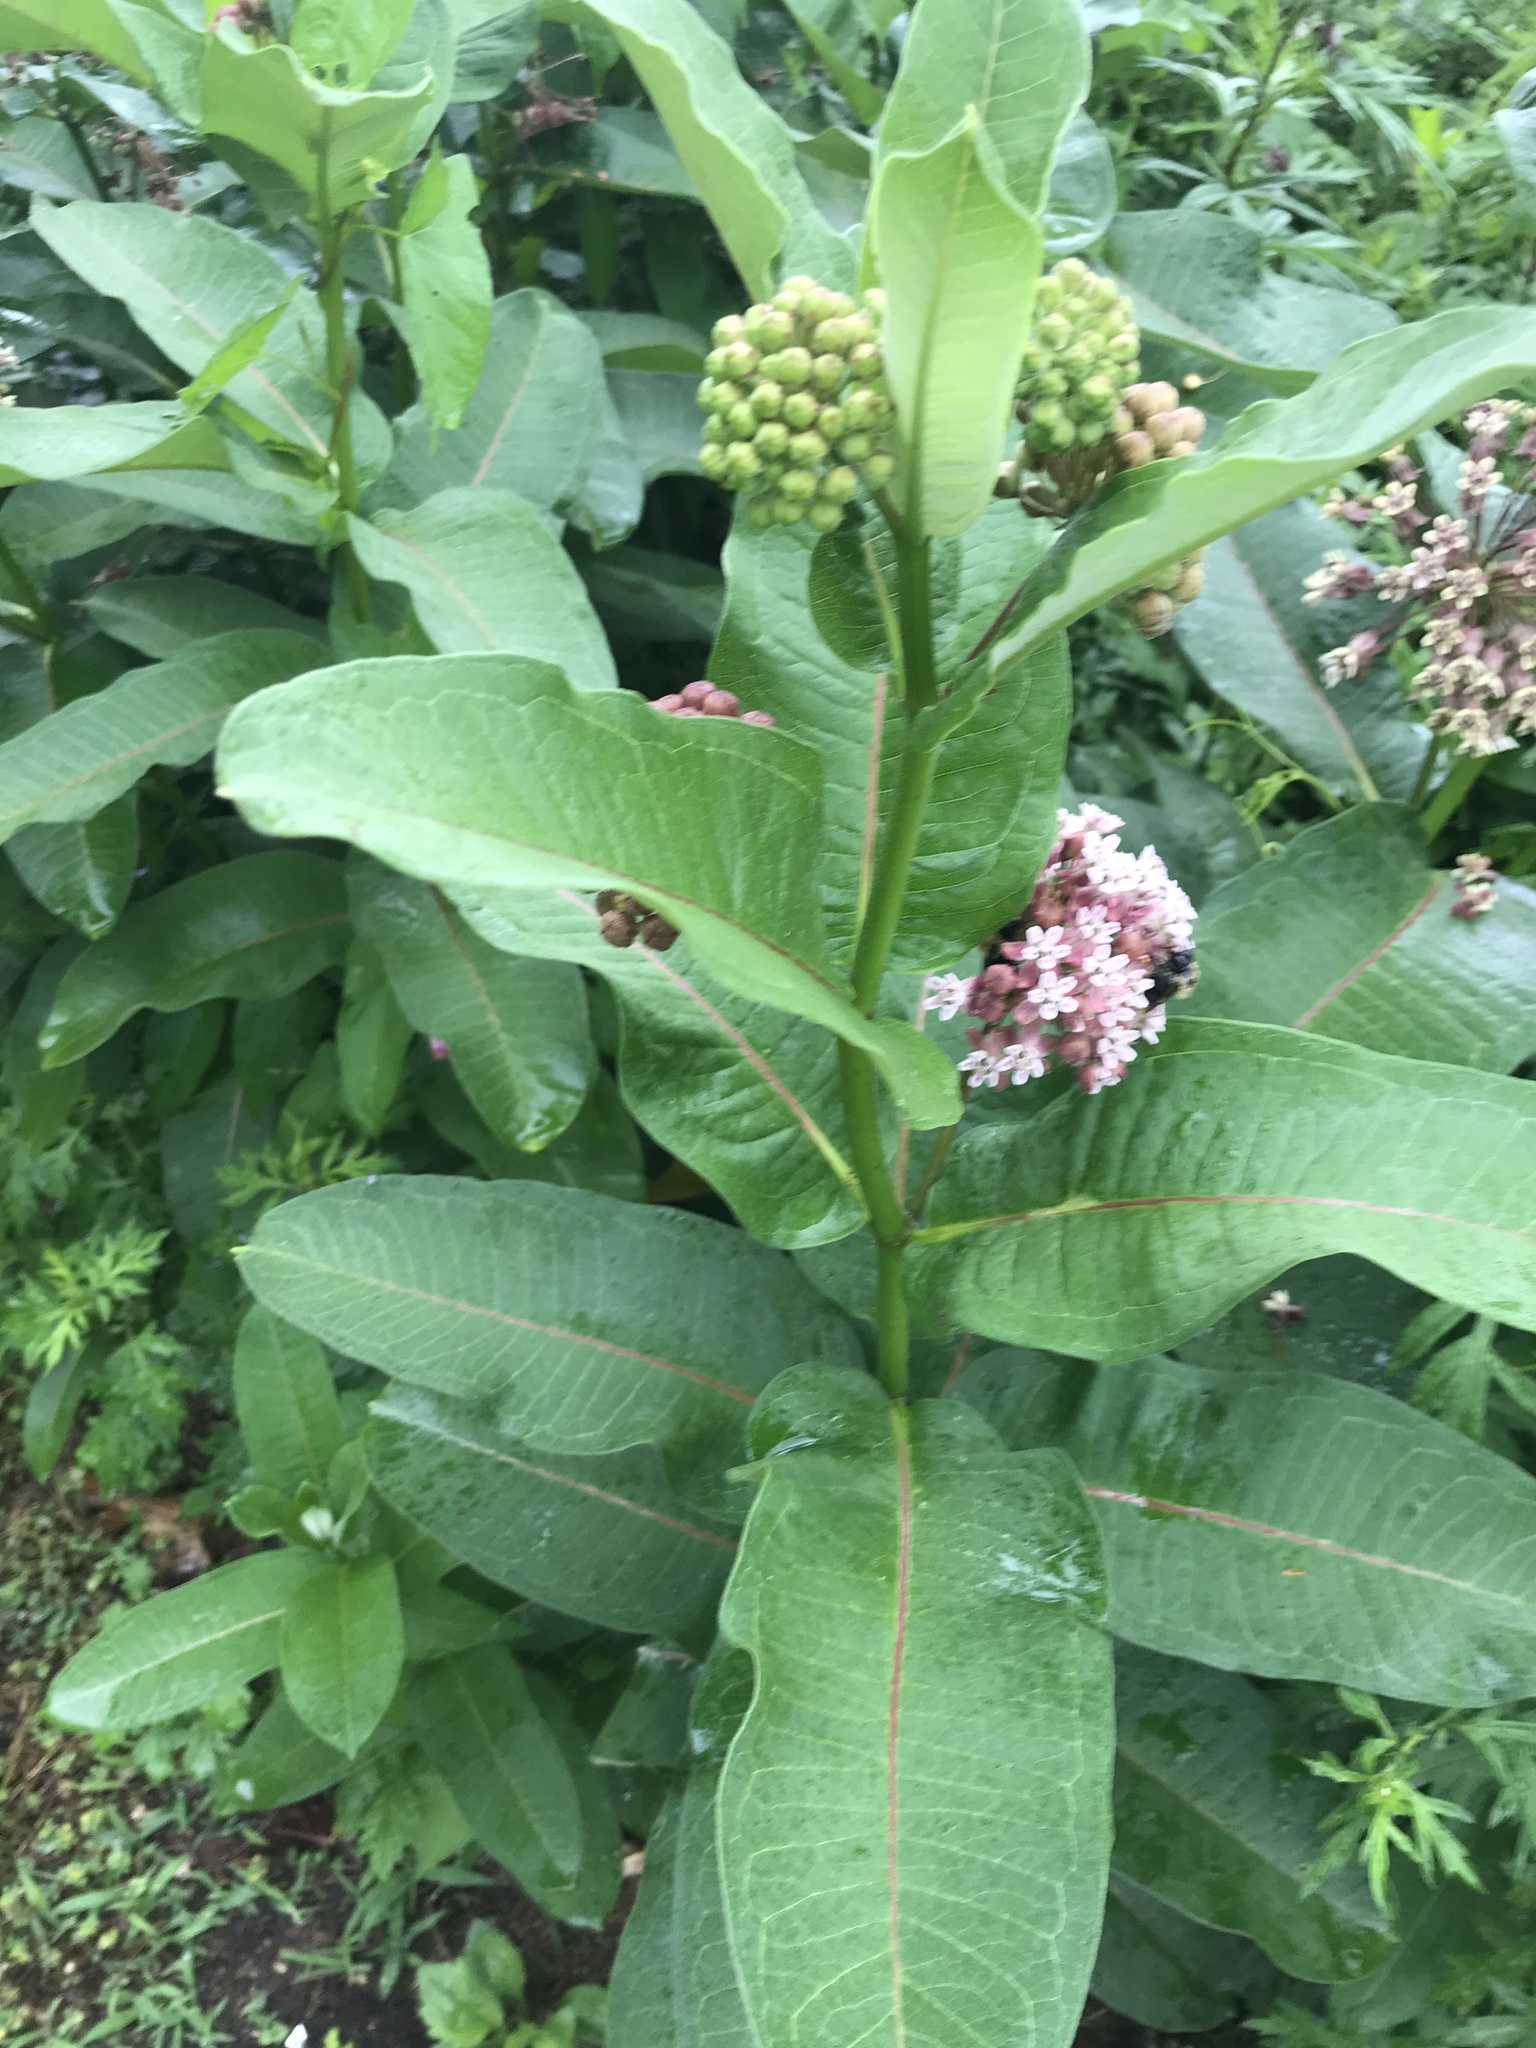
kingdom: Plantae
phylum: Tracheophyta
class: Magnoliopsida
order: Gentianales
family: Apocynaceae
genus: Asclepias
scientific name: Asclepias syriaca
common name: Common milkweed
